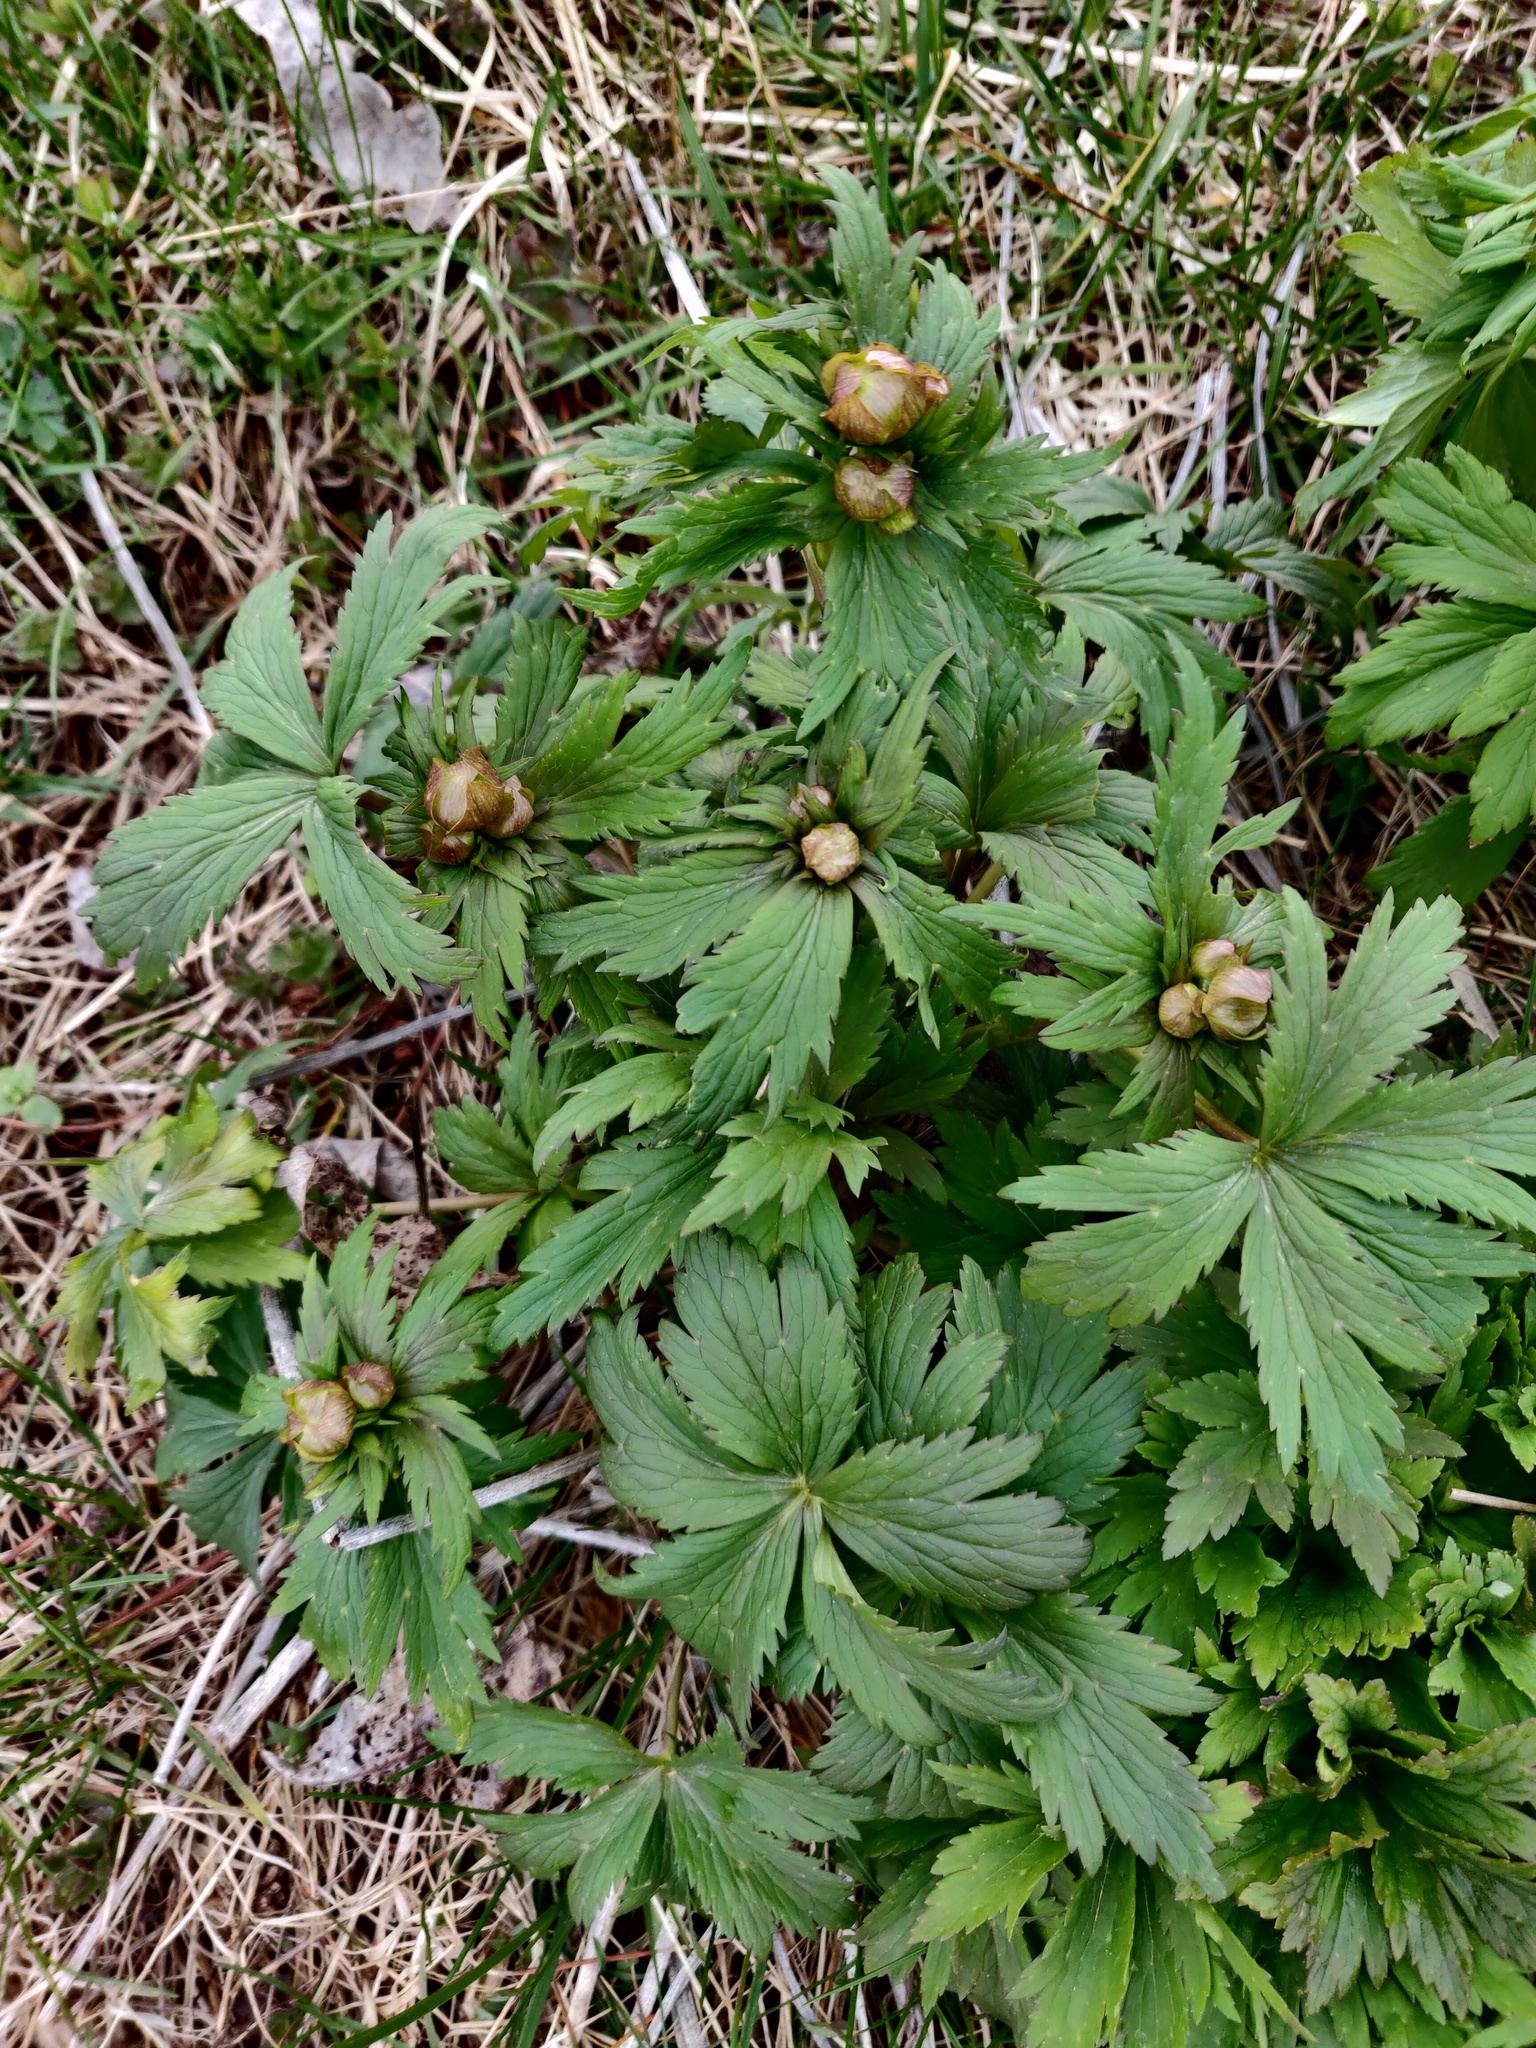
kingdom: Plantae
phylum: Tracheophyta
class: Magnoliopsida
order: Ranunculales
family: Ranunculaceae
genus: Trollius
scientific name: Trollius europaeus
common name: European globeflower
